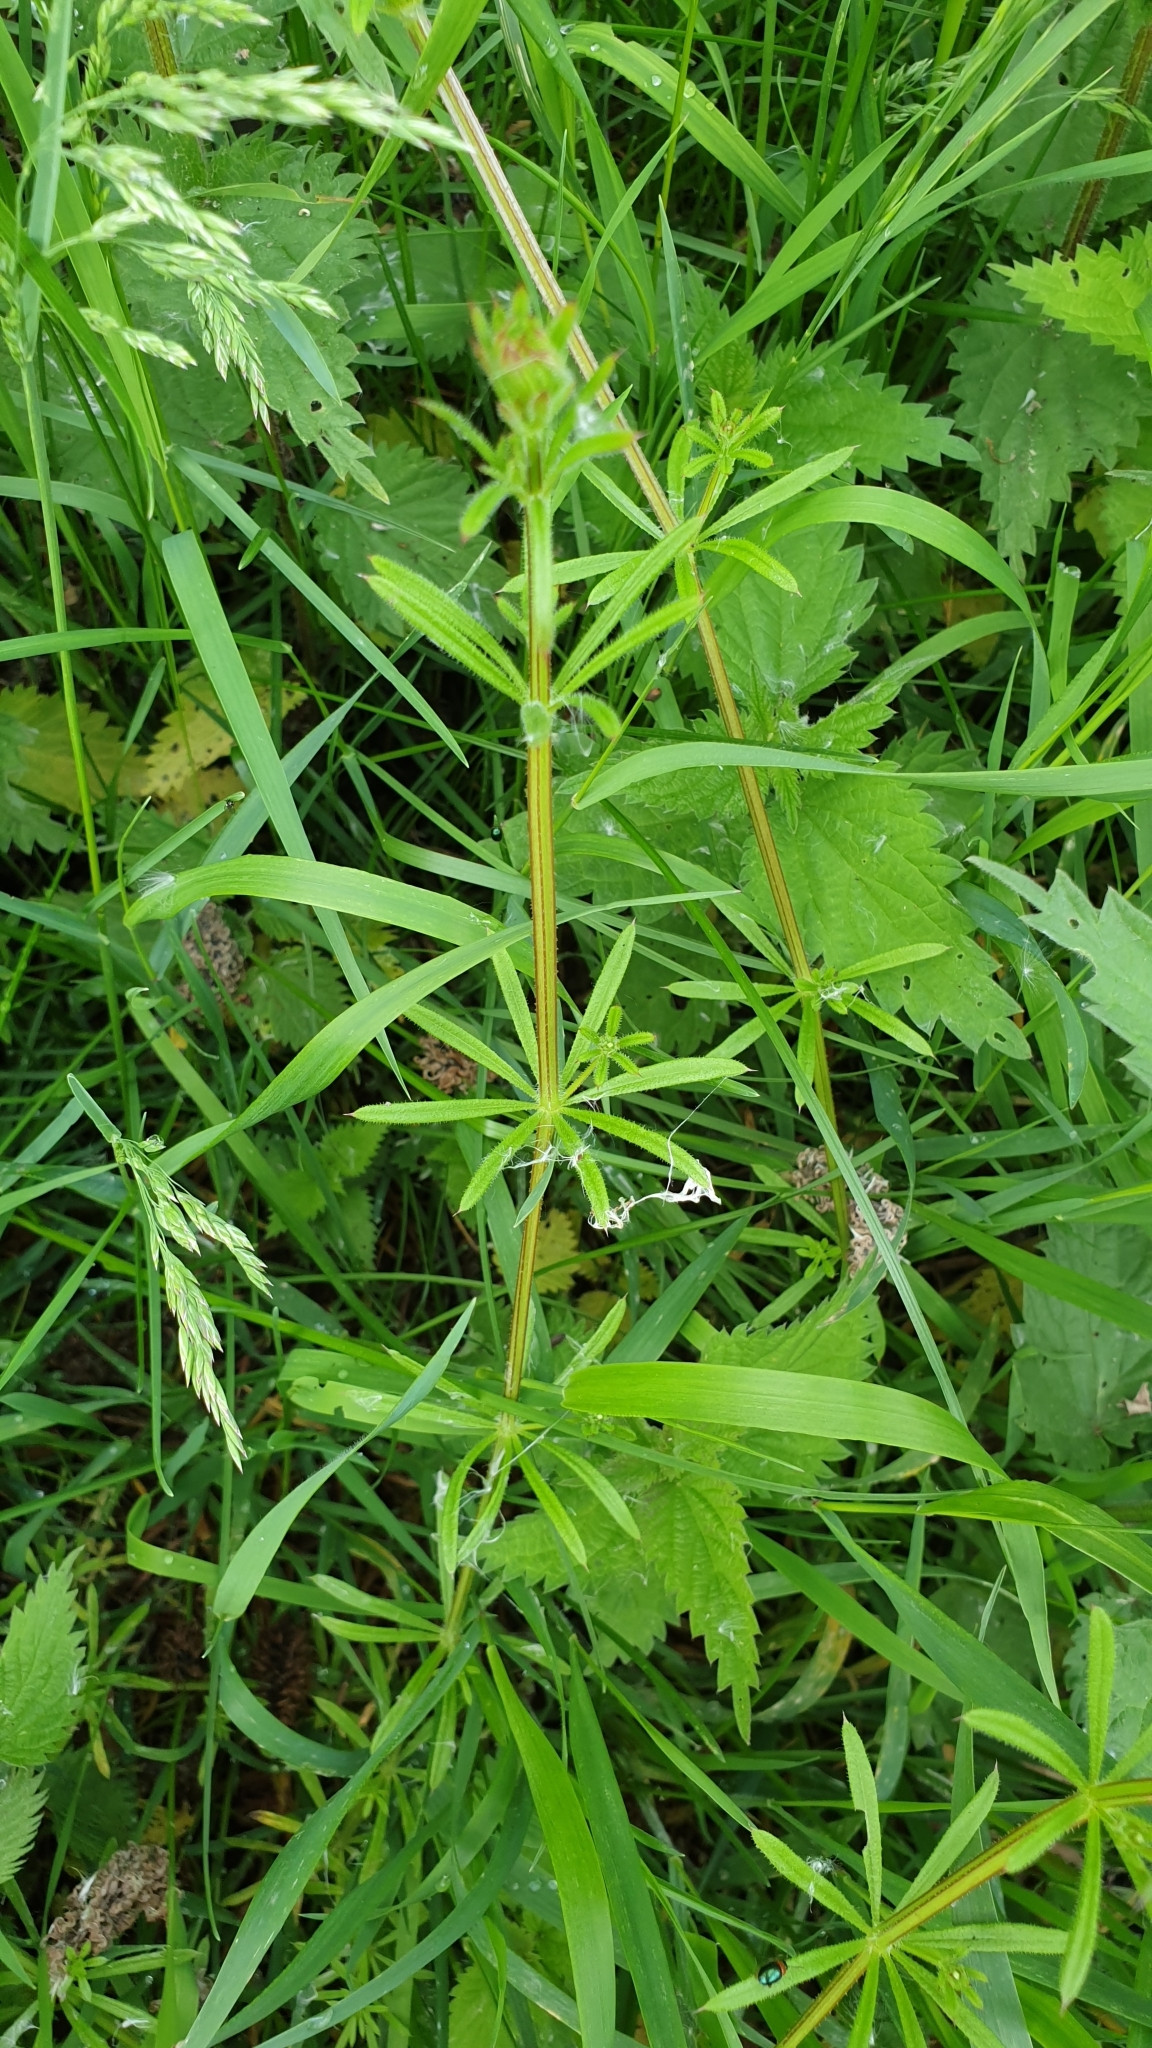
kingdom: Plantae
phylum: Tracheophyta
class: Magnoliopsida
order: Gentianales
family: Rubiaceae
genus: Galium
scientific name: Galium aparine
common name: Cleavers
